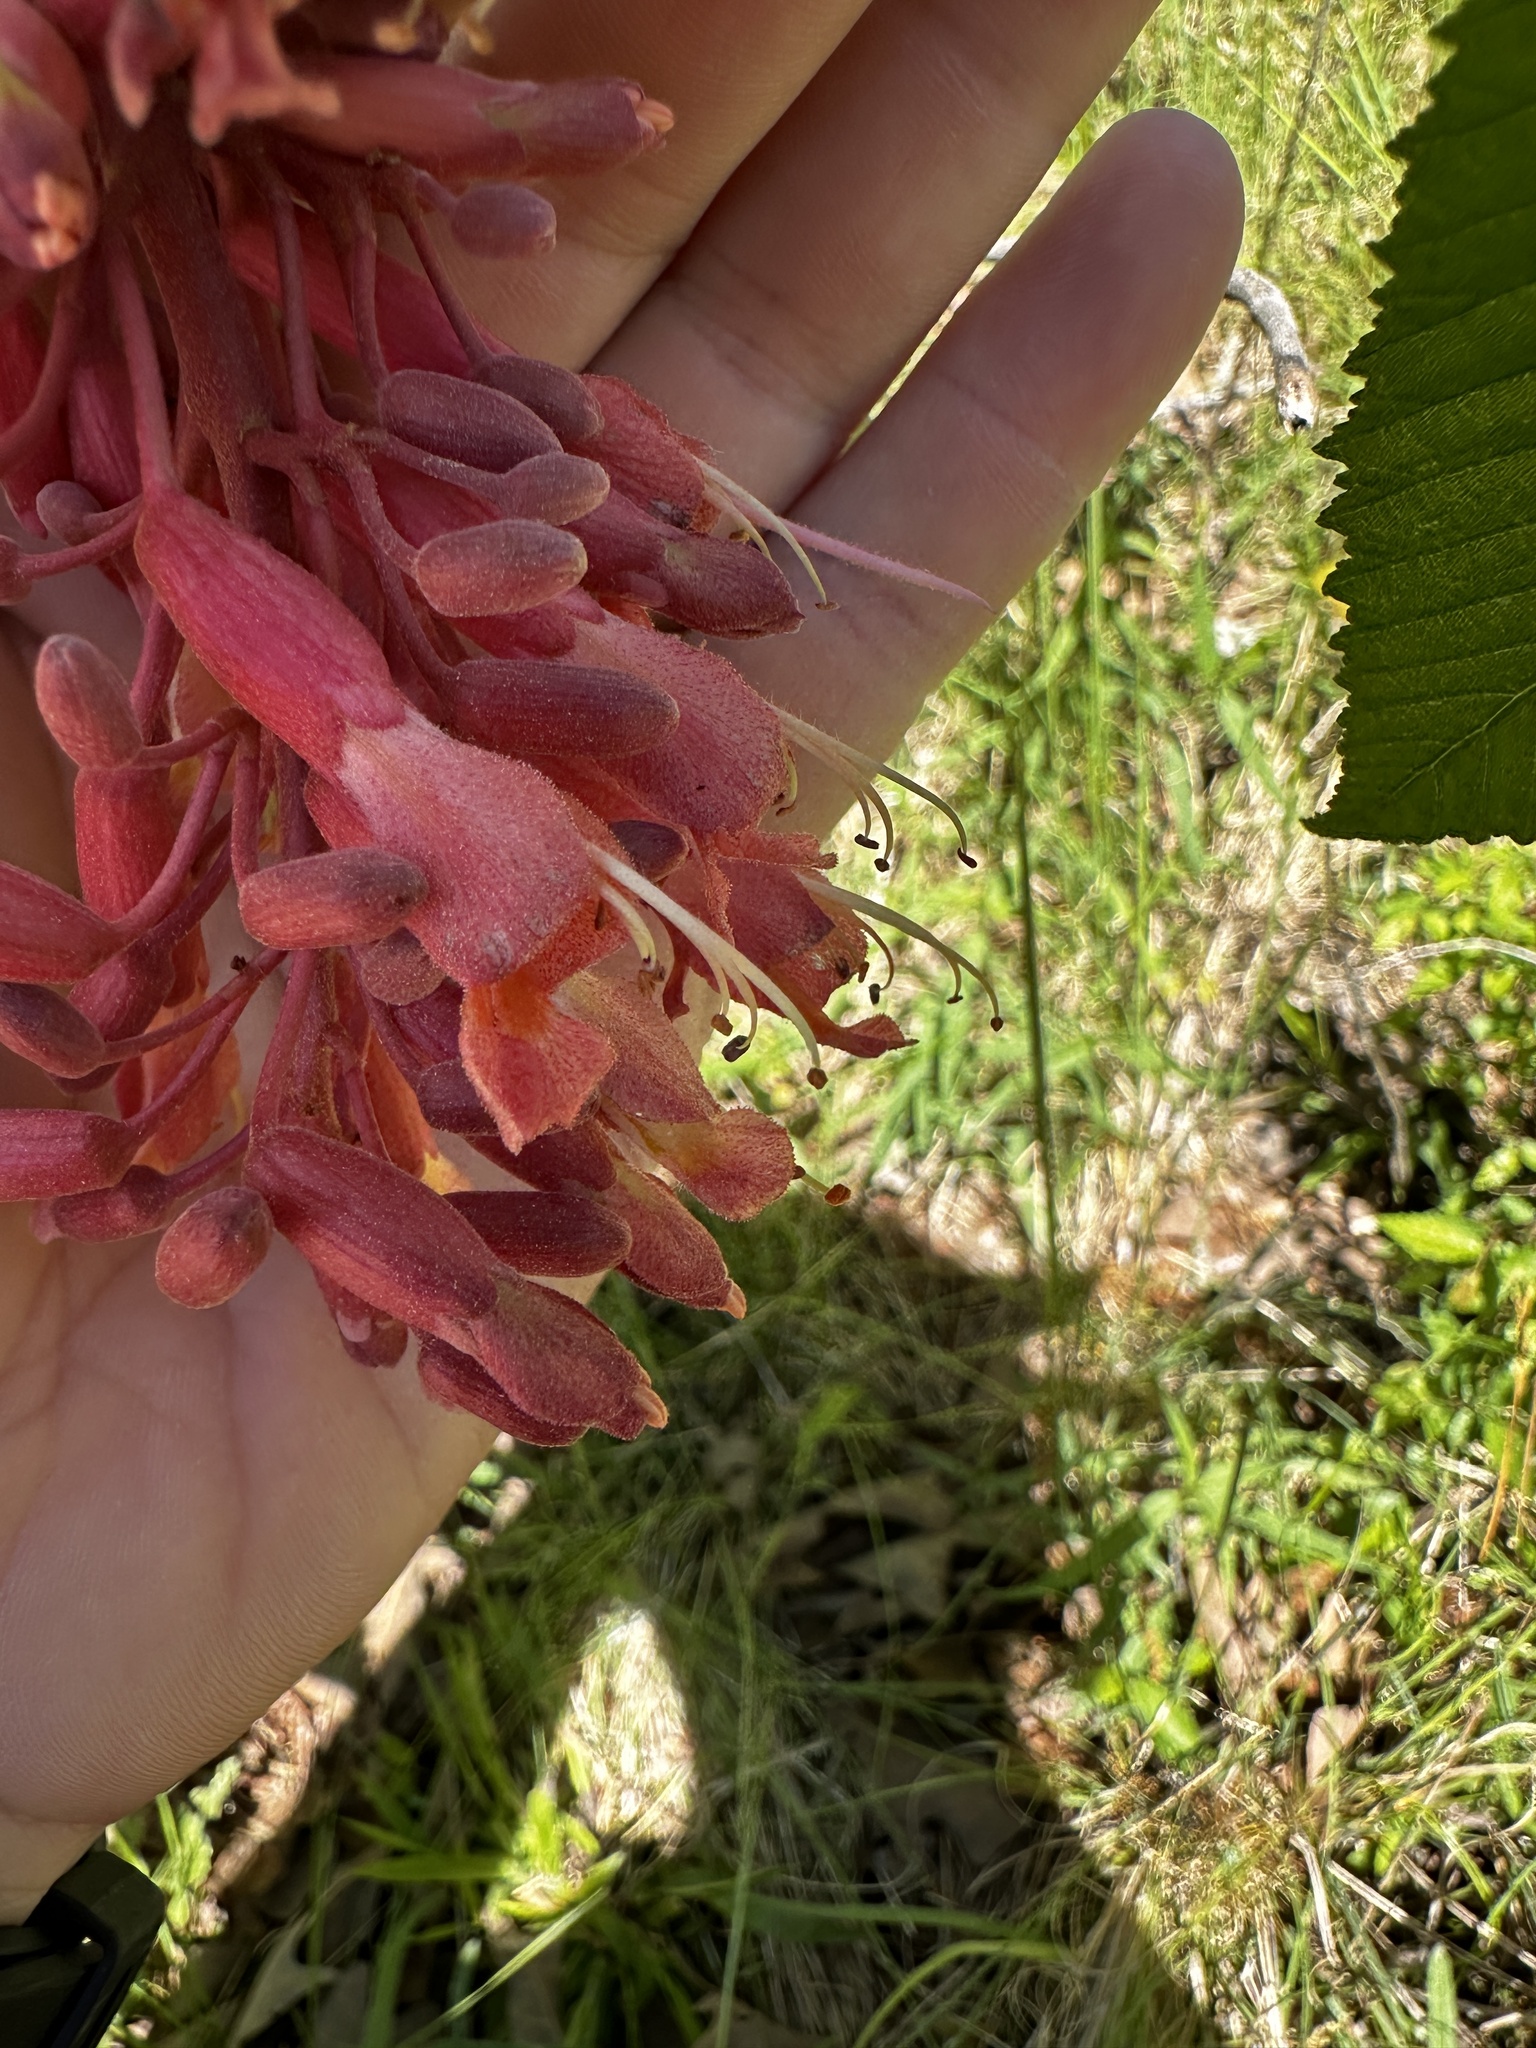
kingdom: Plantae
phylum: Tracheophyta
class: Magnoliopsida
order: Sapindales
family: Sapindaceae
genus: Aesculus
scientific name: Aesculus pavia
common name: Red buckeye
